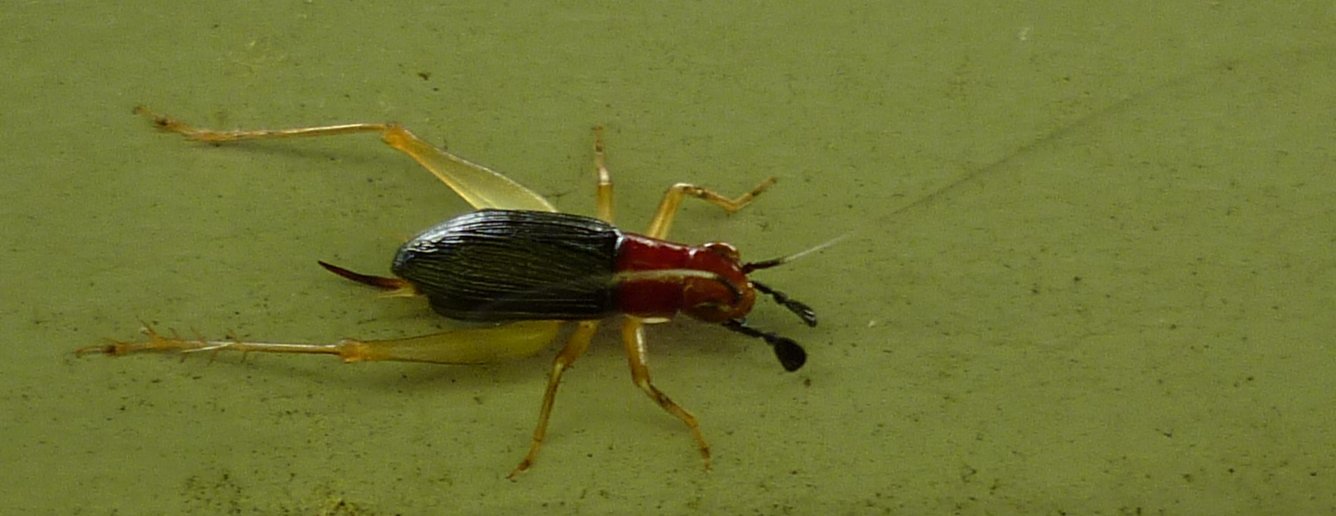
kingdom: Animalia
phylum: Arthropoda
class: Insecta
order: Orthoptera
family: Trigonidiidae
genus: Phyllopalpus
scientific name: Phyllopalpus pulchellus
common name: Handsome trig
